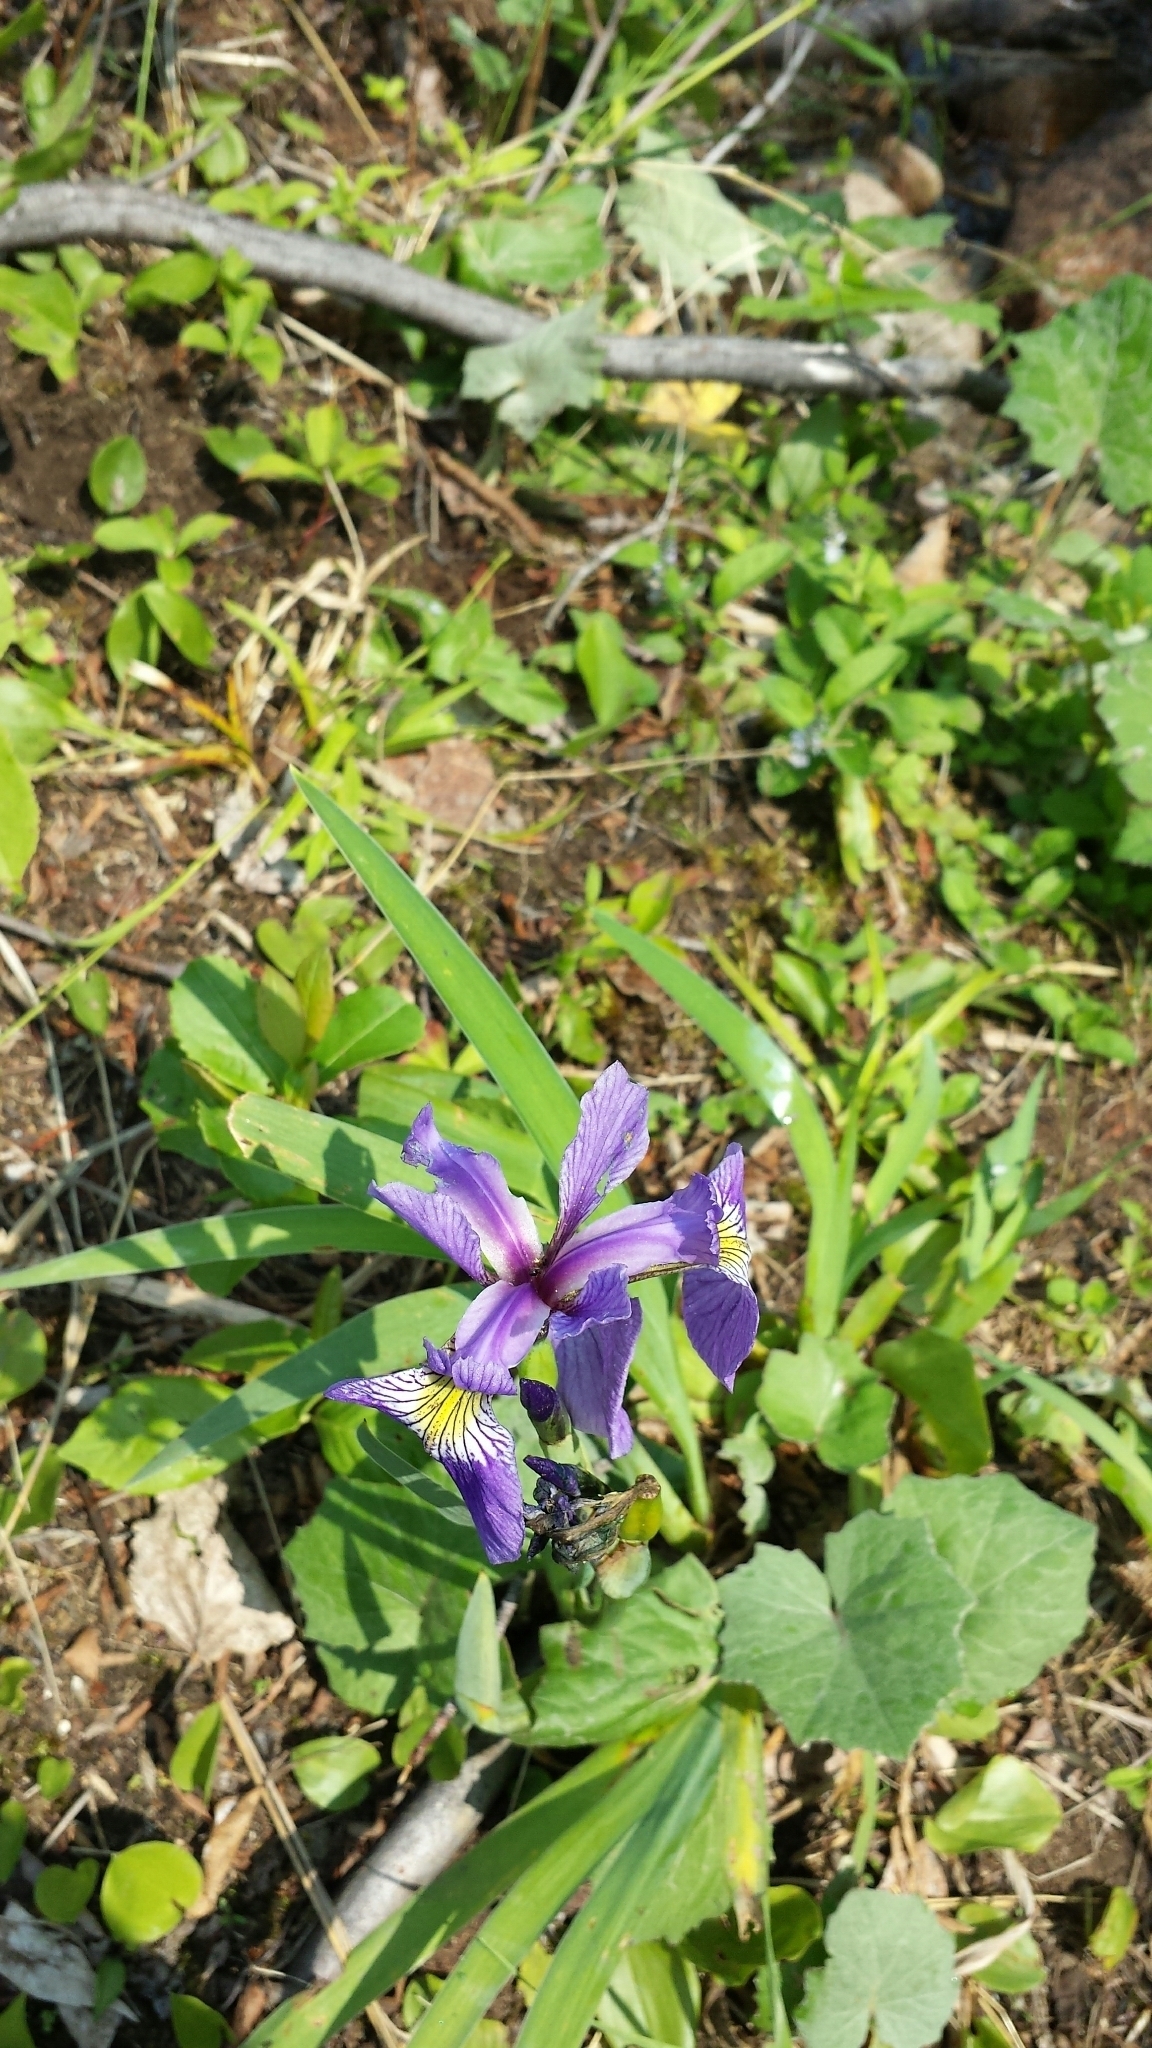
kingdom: Plantae
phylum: Tracheophyta
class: Liliopsida
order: Asparagales
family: Iridaceae
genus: Iris
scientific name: Iris versicolor
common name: Purple iris
